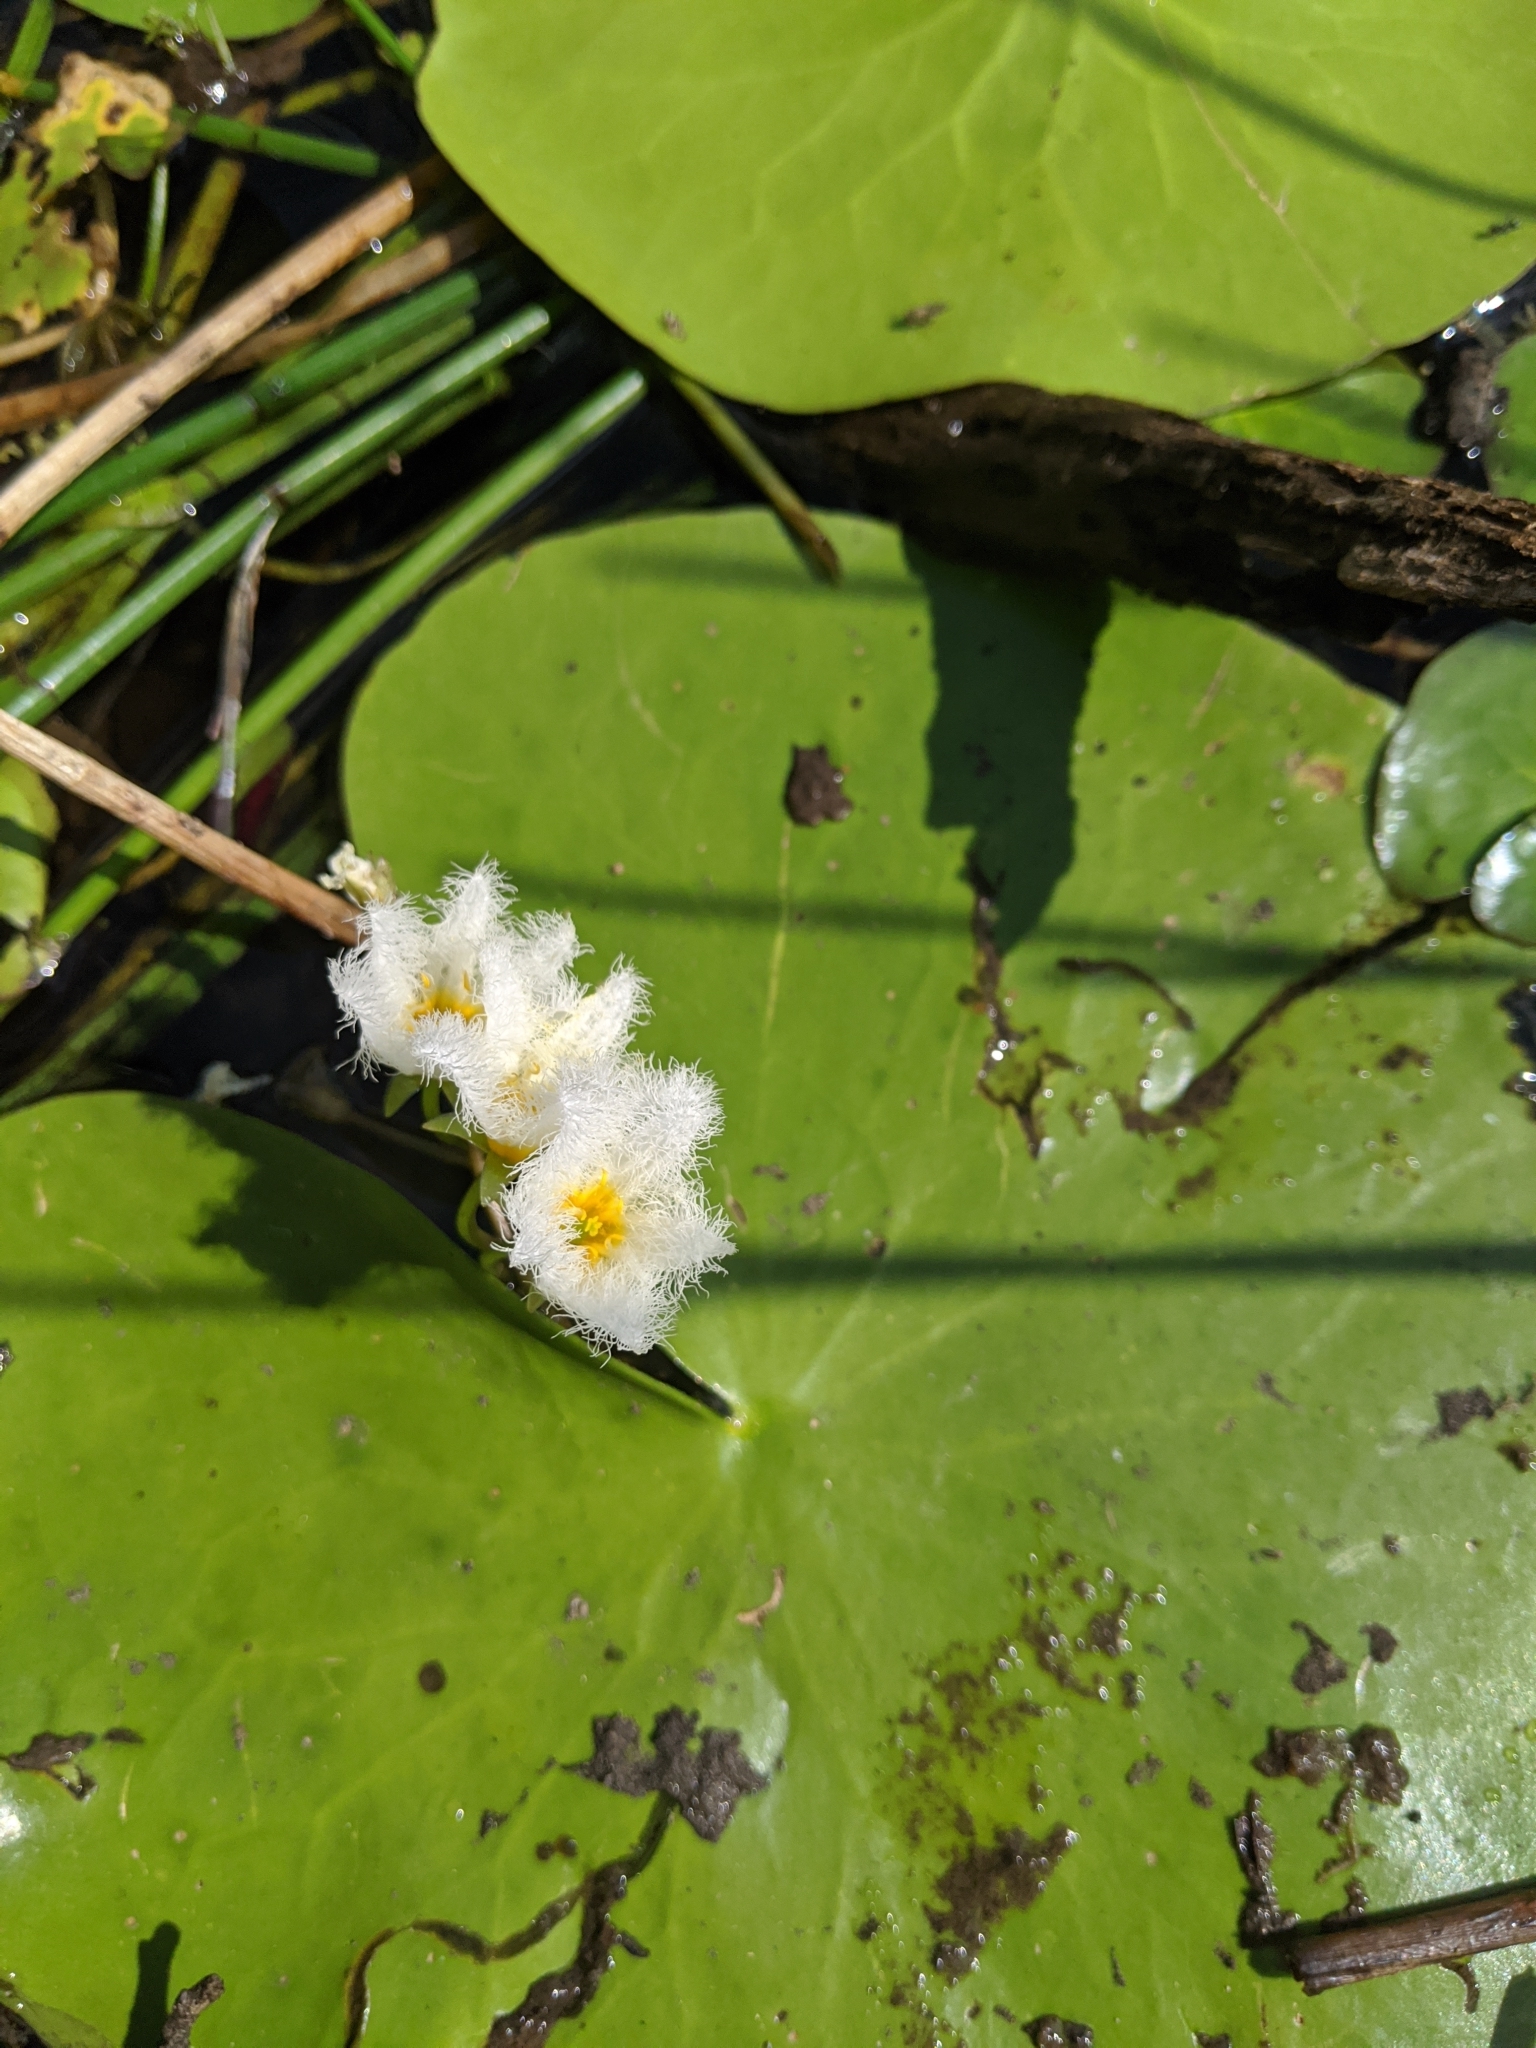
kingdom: Plantae
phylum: Tracheophyta
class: Magnoliopsida
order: Asterales
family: Menyanthaceae
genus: Nymphoides
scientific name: Nymphoides indica
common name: Water-snowflake
